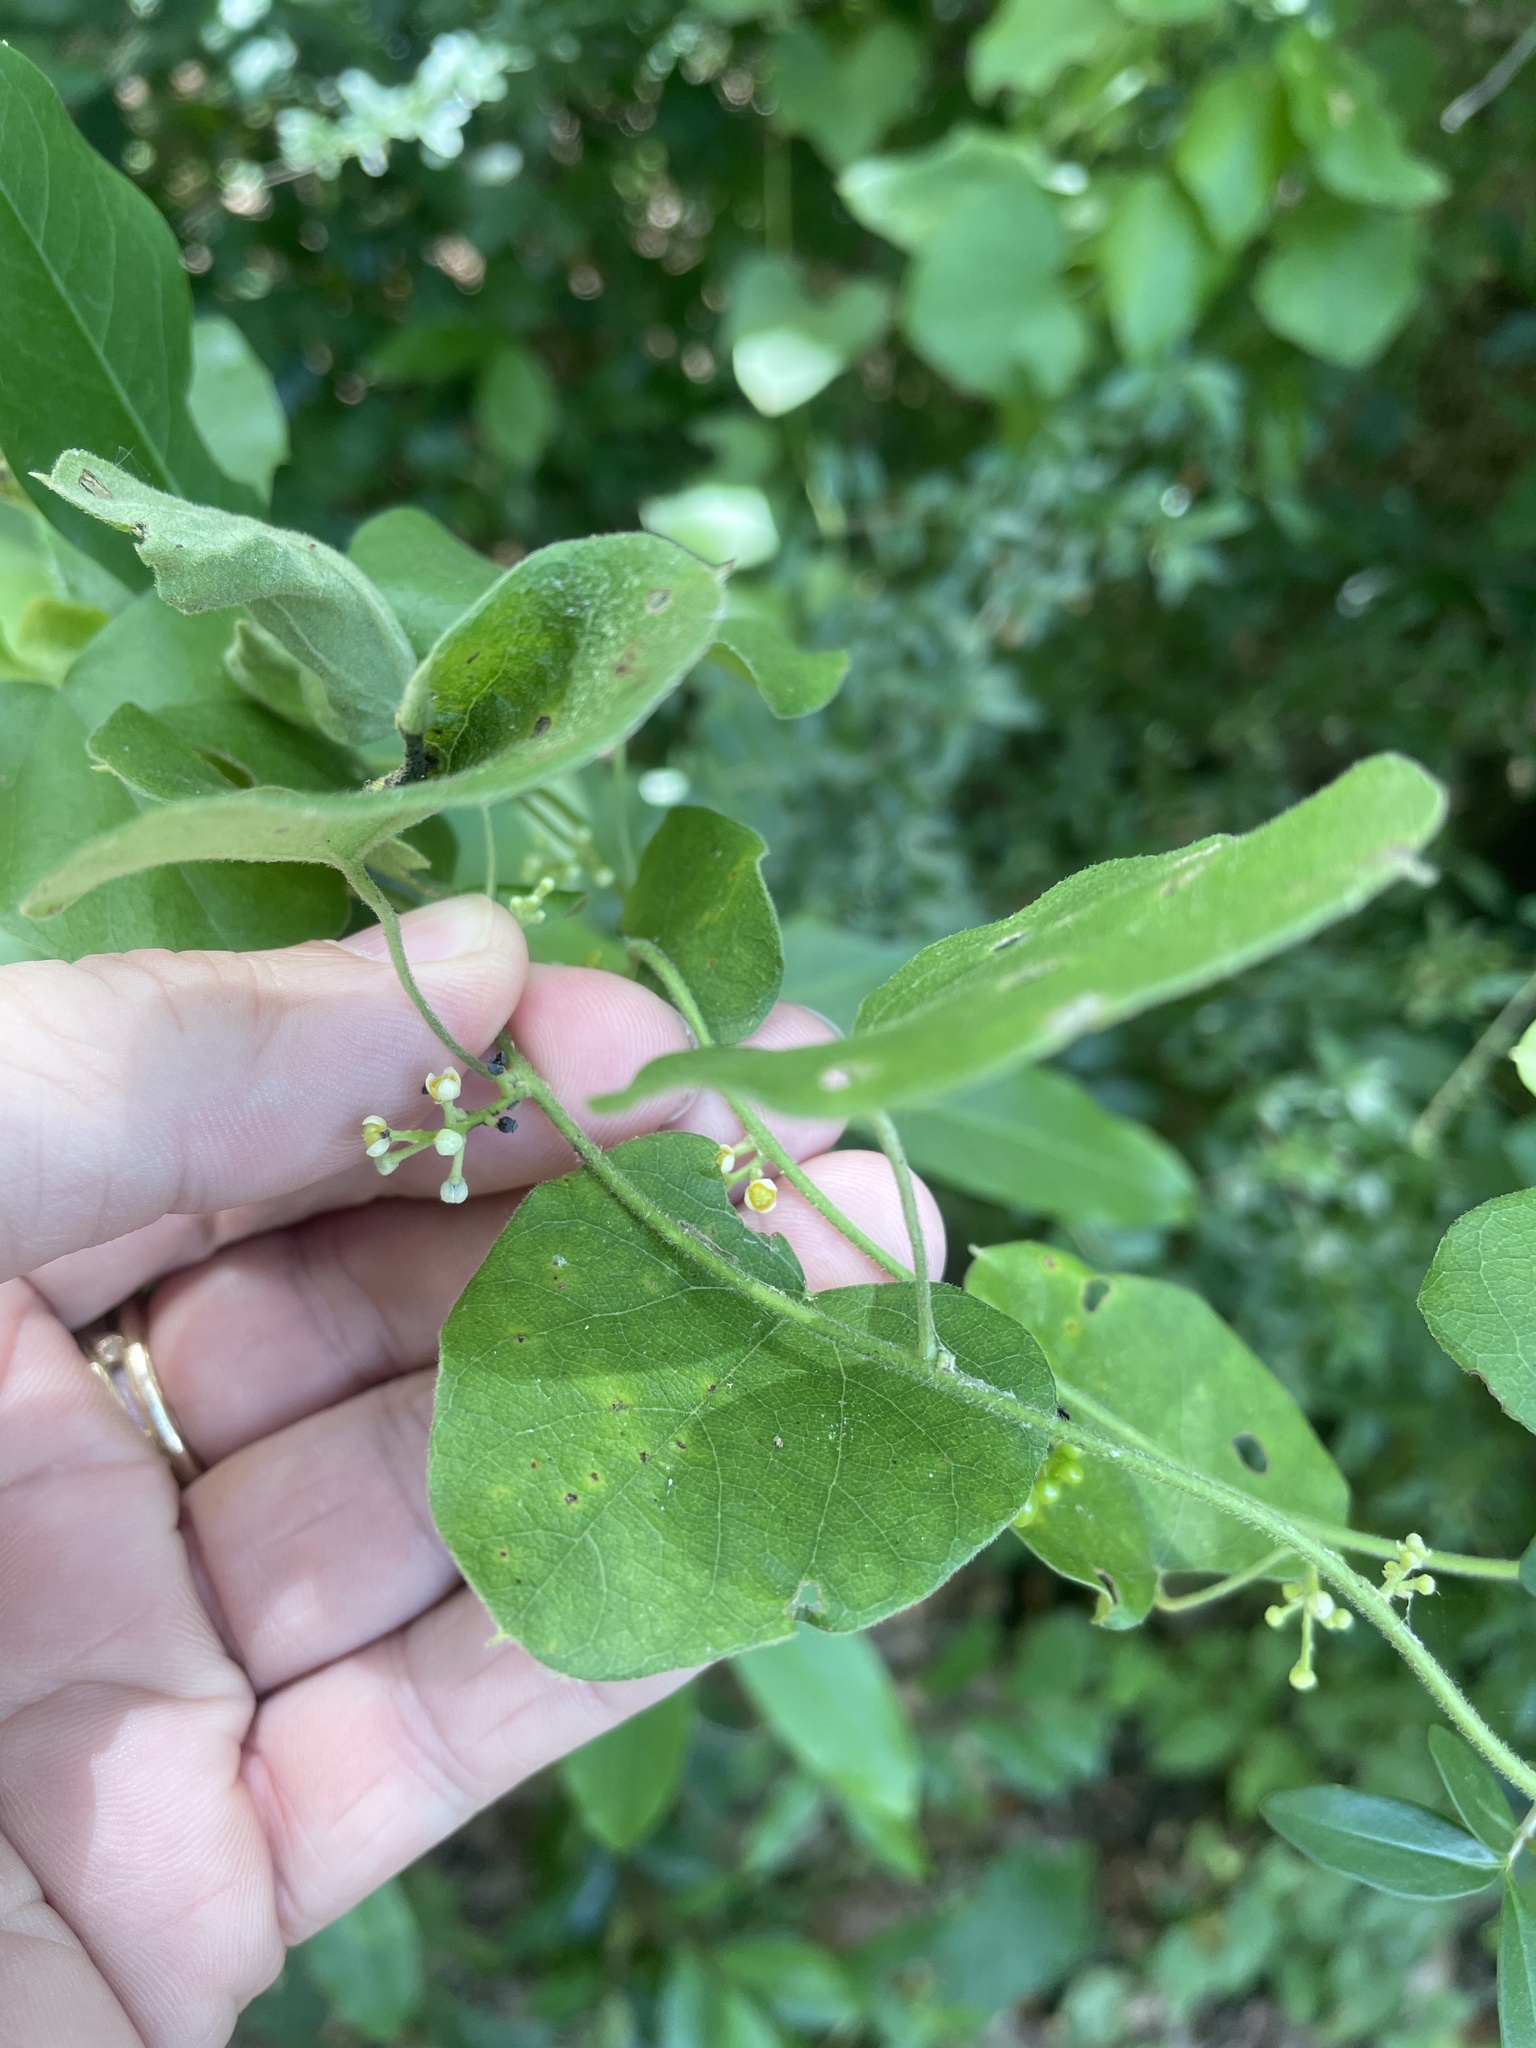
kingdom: Plantae
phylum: Tracheophyta
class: Magnoliopsida
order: Ranunculales
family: Menispermaceae
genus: Cocculus
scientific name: Cocculus carolinus
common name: Carolina moonseed
